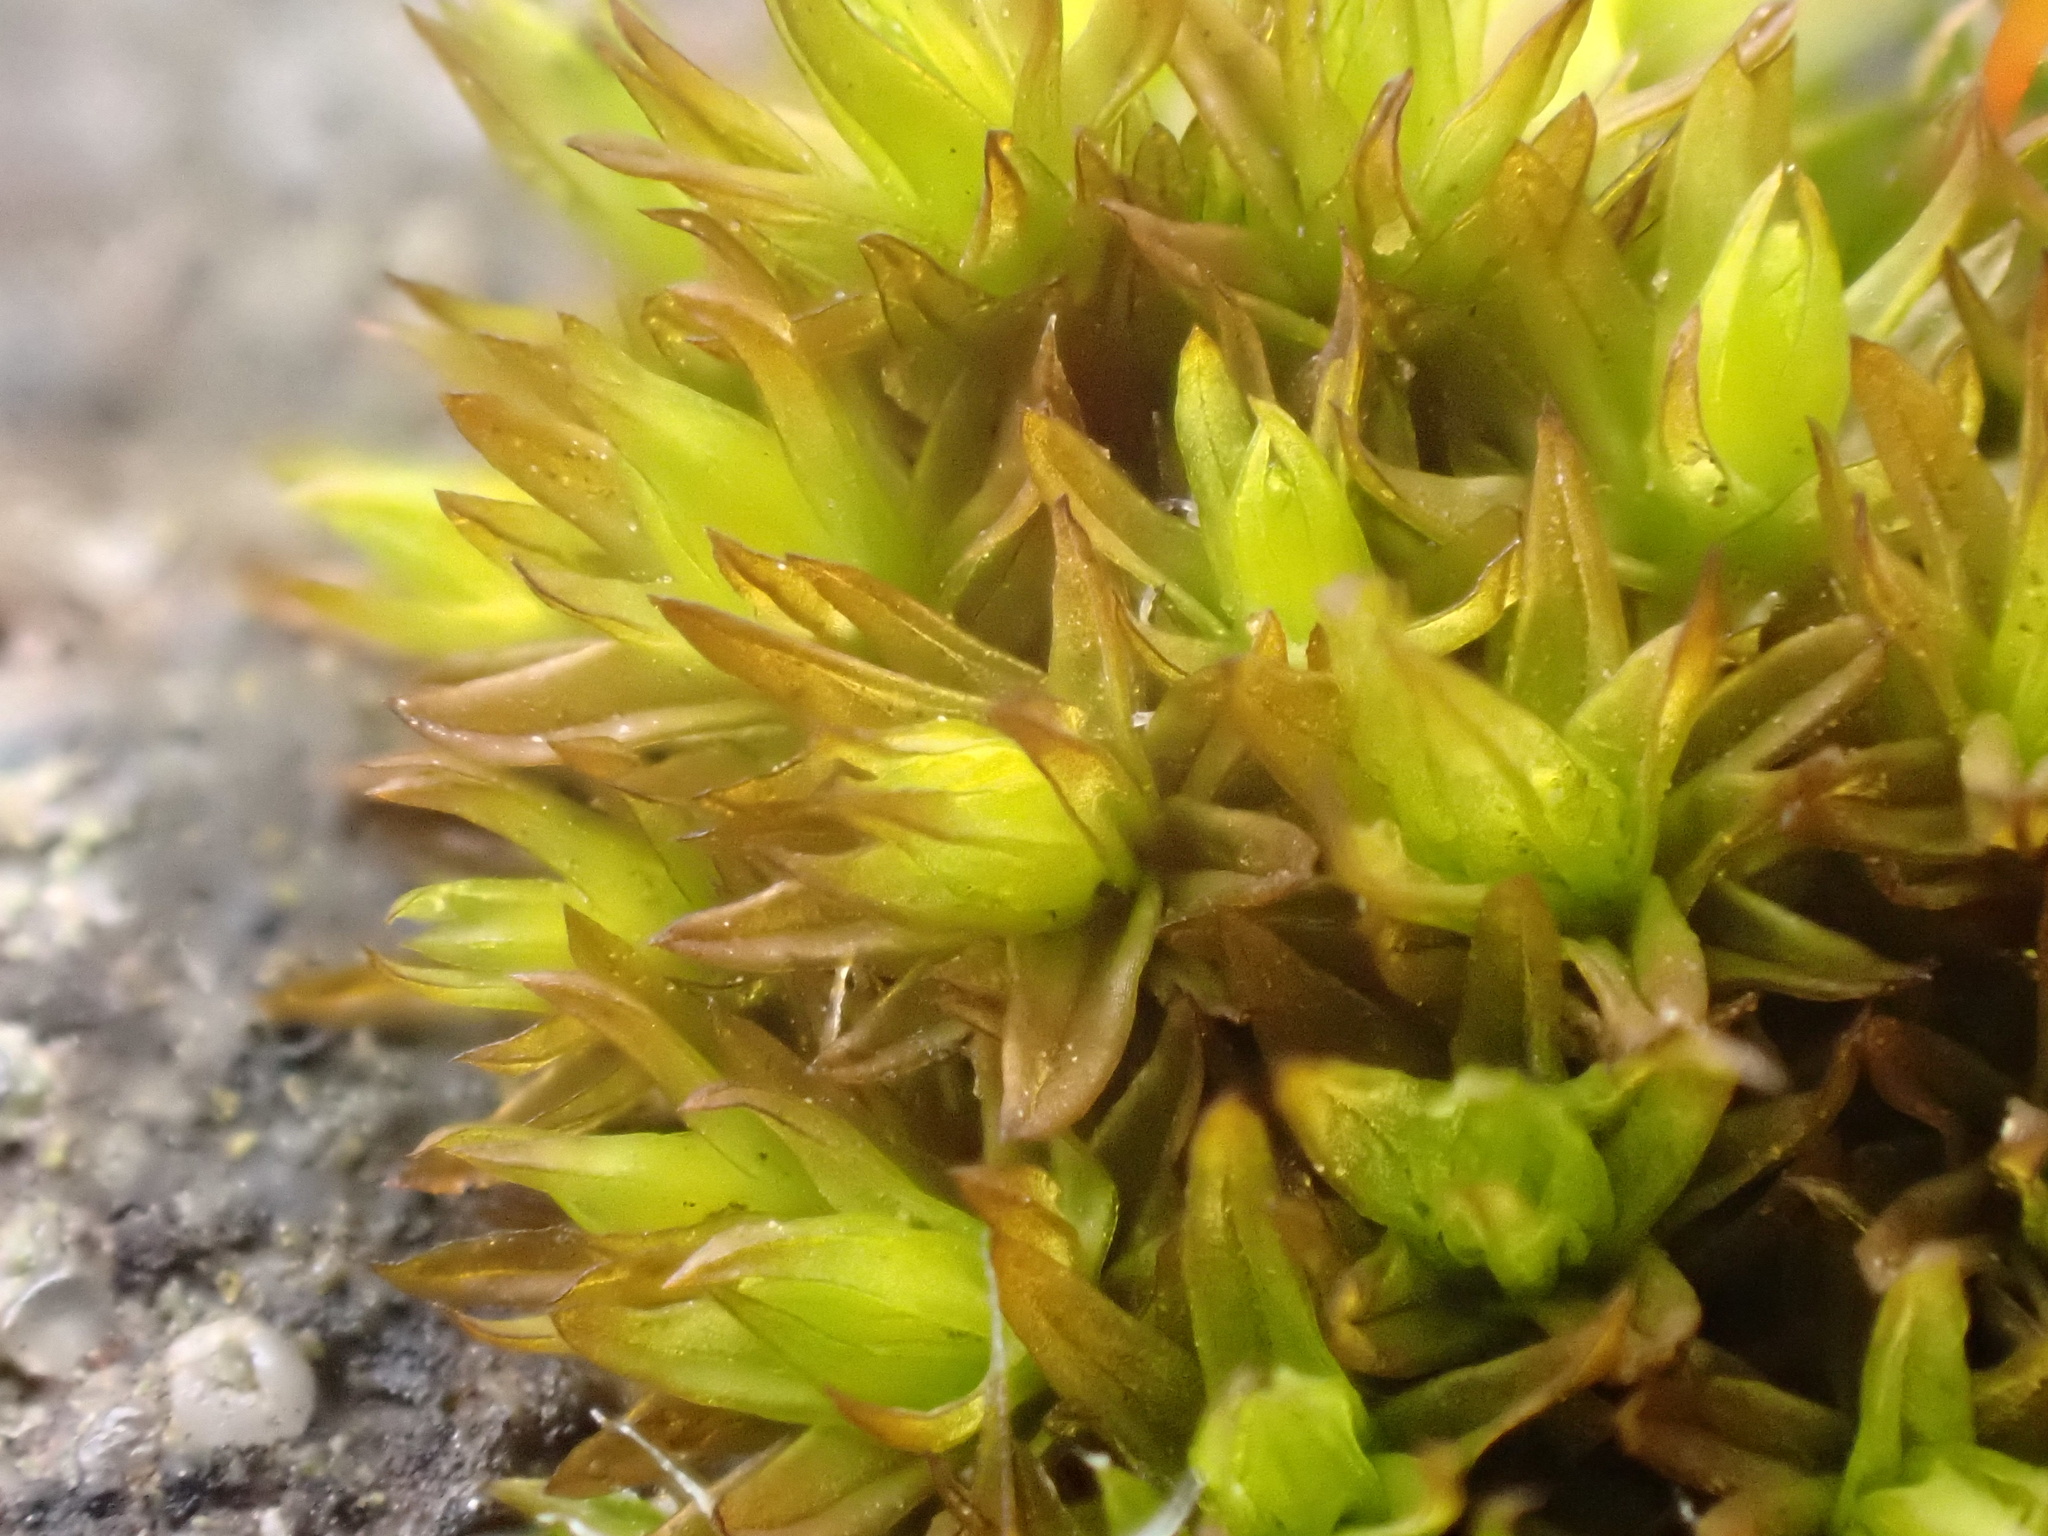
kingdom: Plantae
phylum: Bryophyta
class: Bryopsida
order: Orthotrichales
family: Orthotrichaceae
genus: Orthotrichum
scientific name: Orthotrichum anomalum
